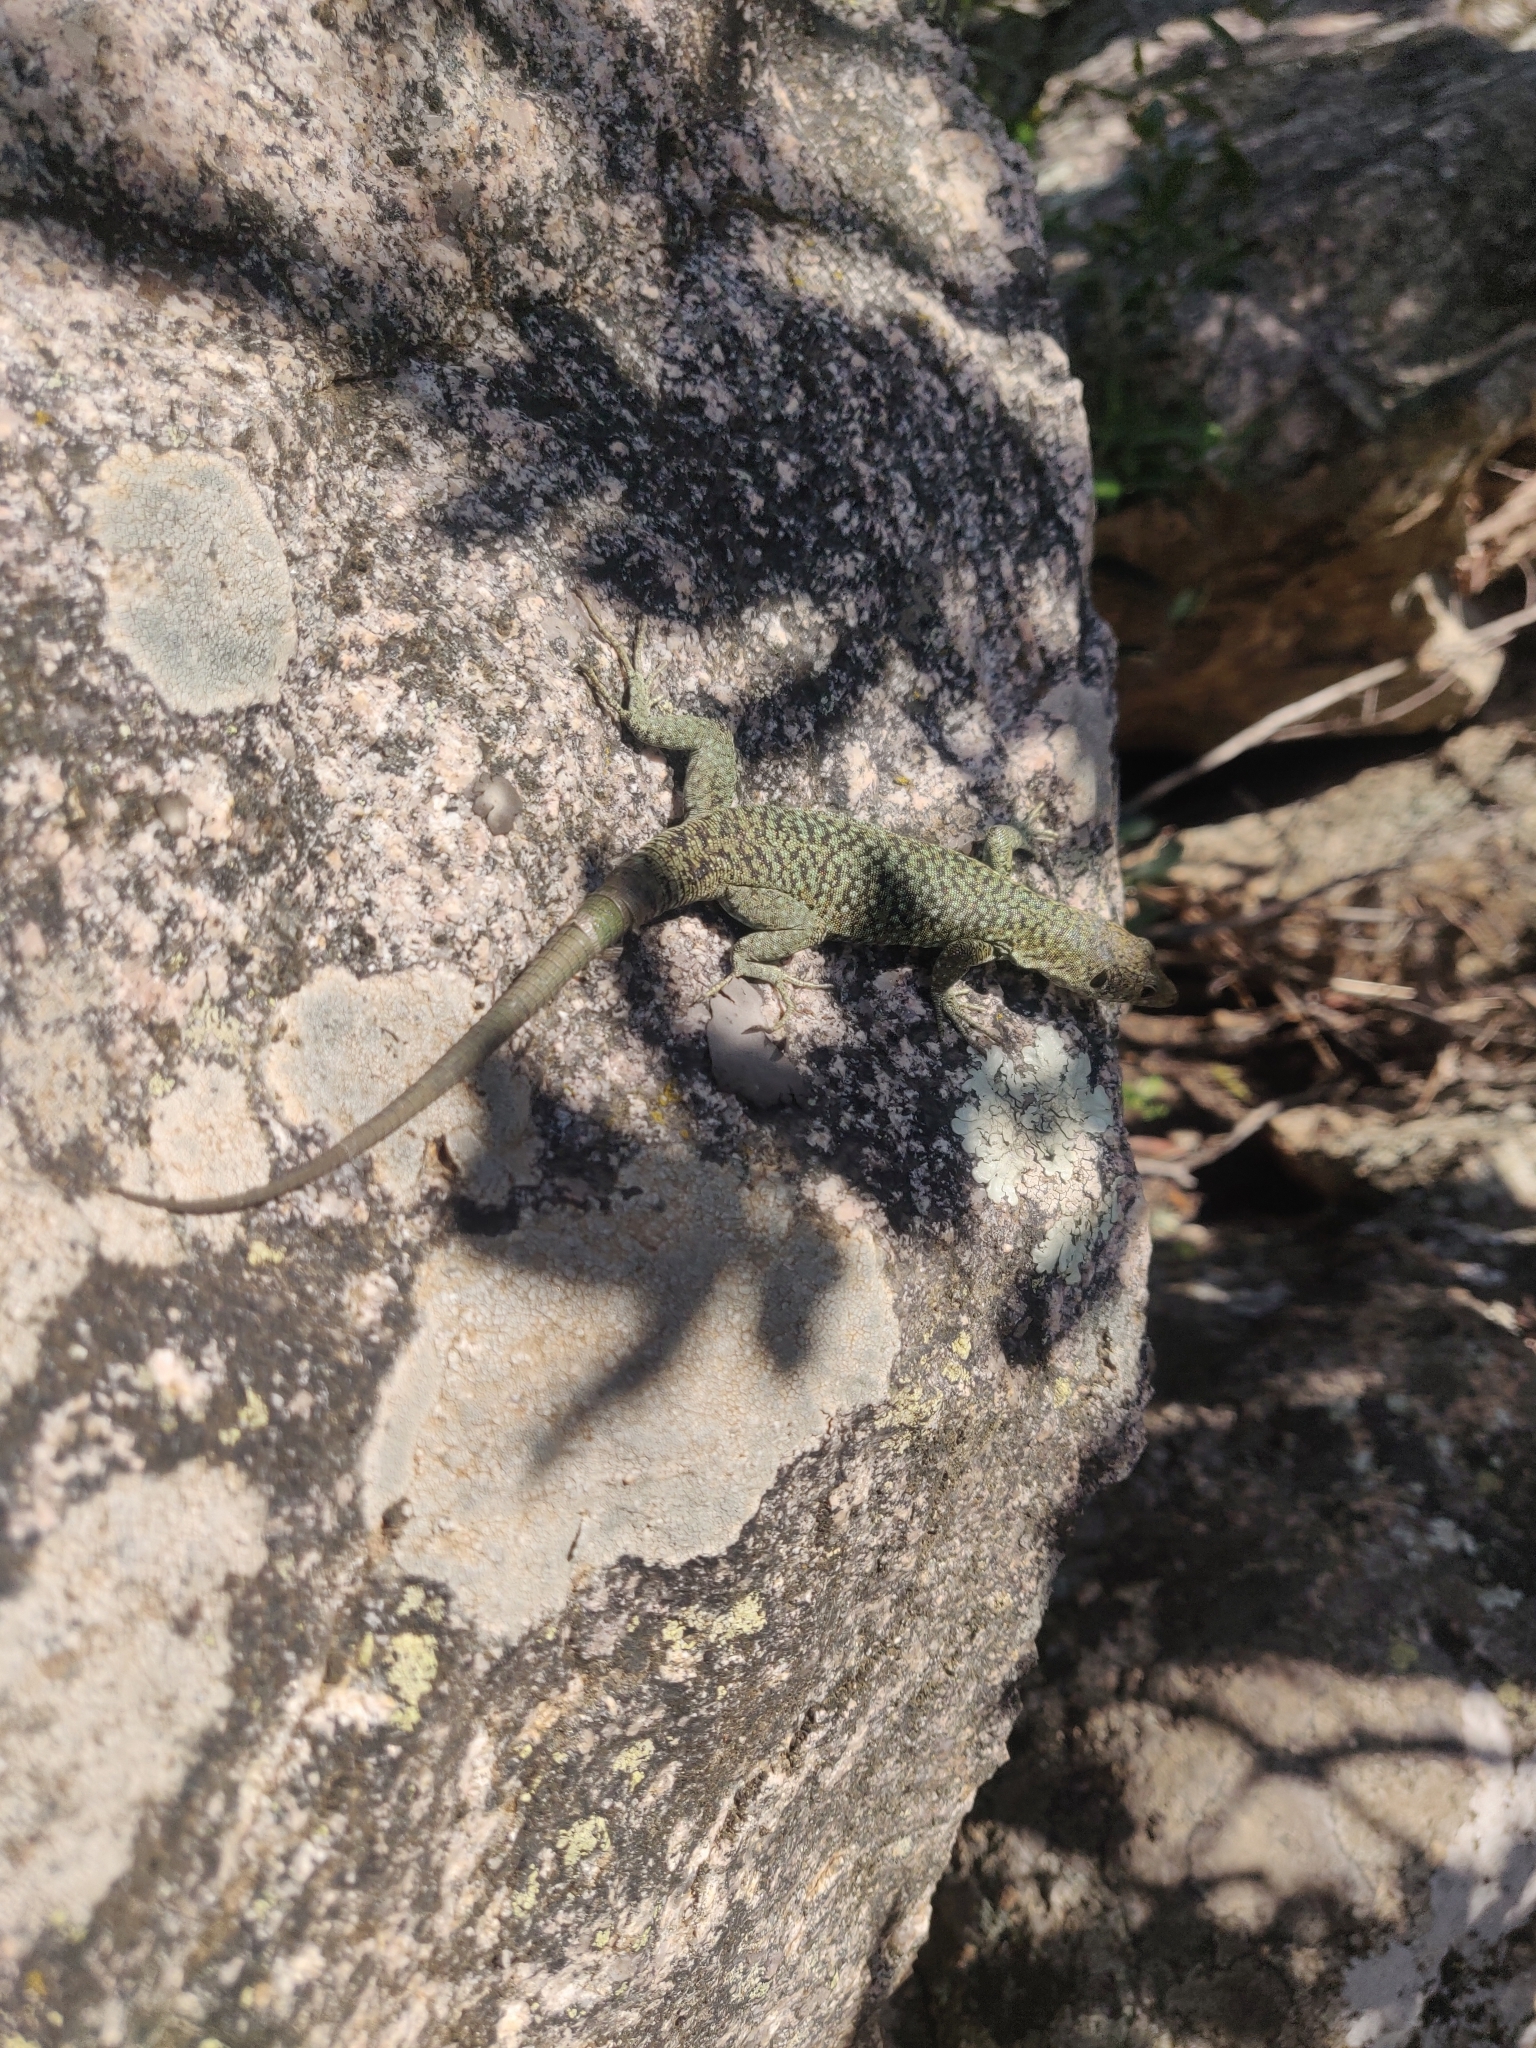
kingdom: Animalia
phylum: Chordata
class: Squamata
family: Lacertidae
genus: Archaeolacerta
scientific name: Archaeolacerta bedriagae
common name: Bedriaga's rock lizard
